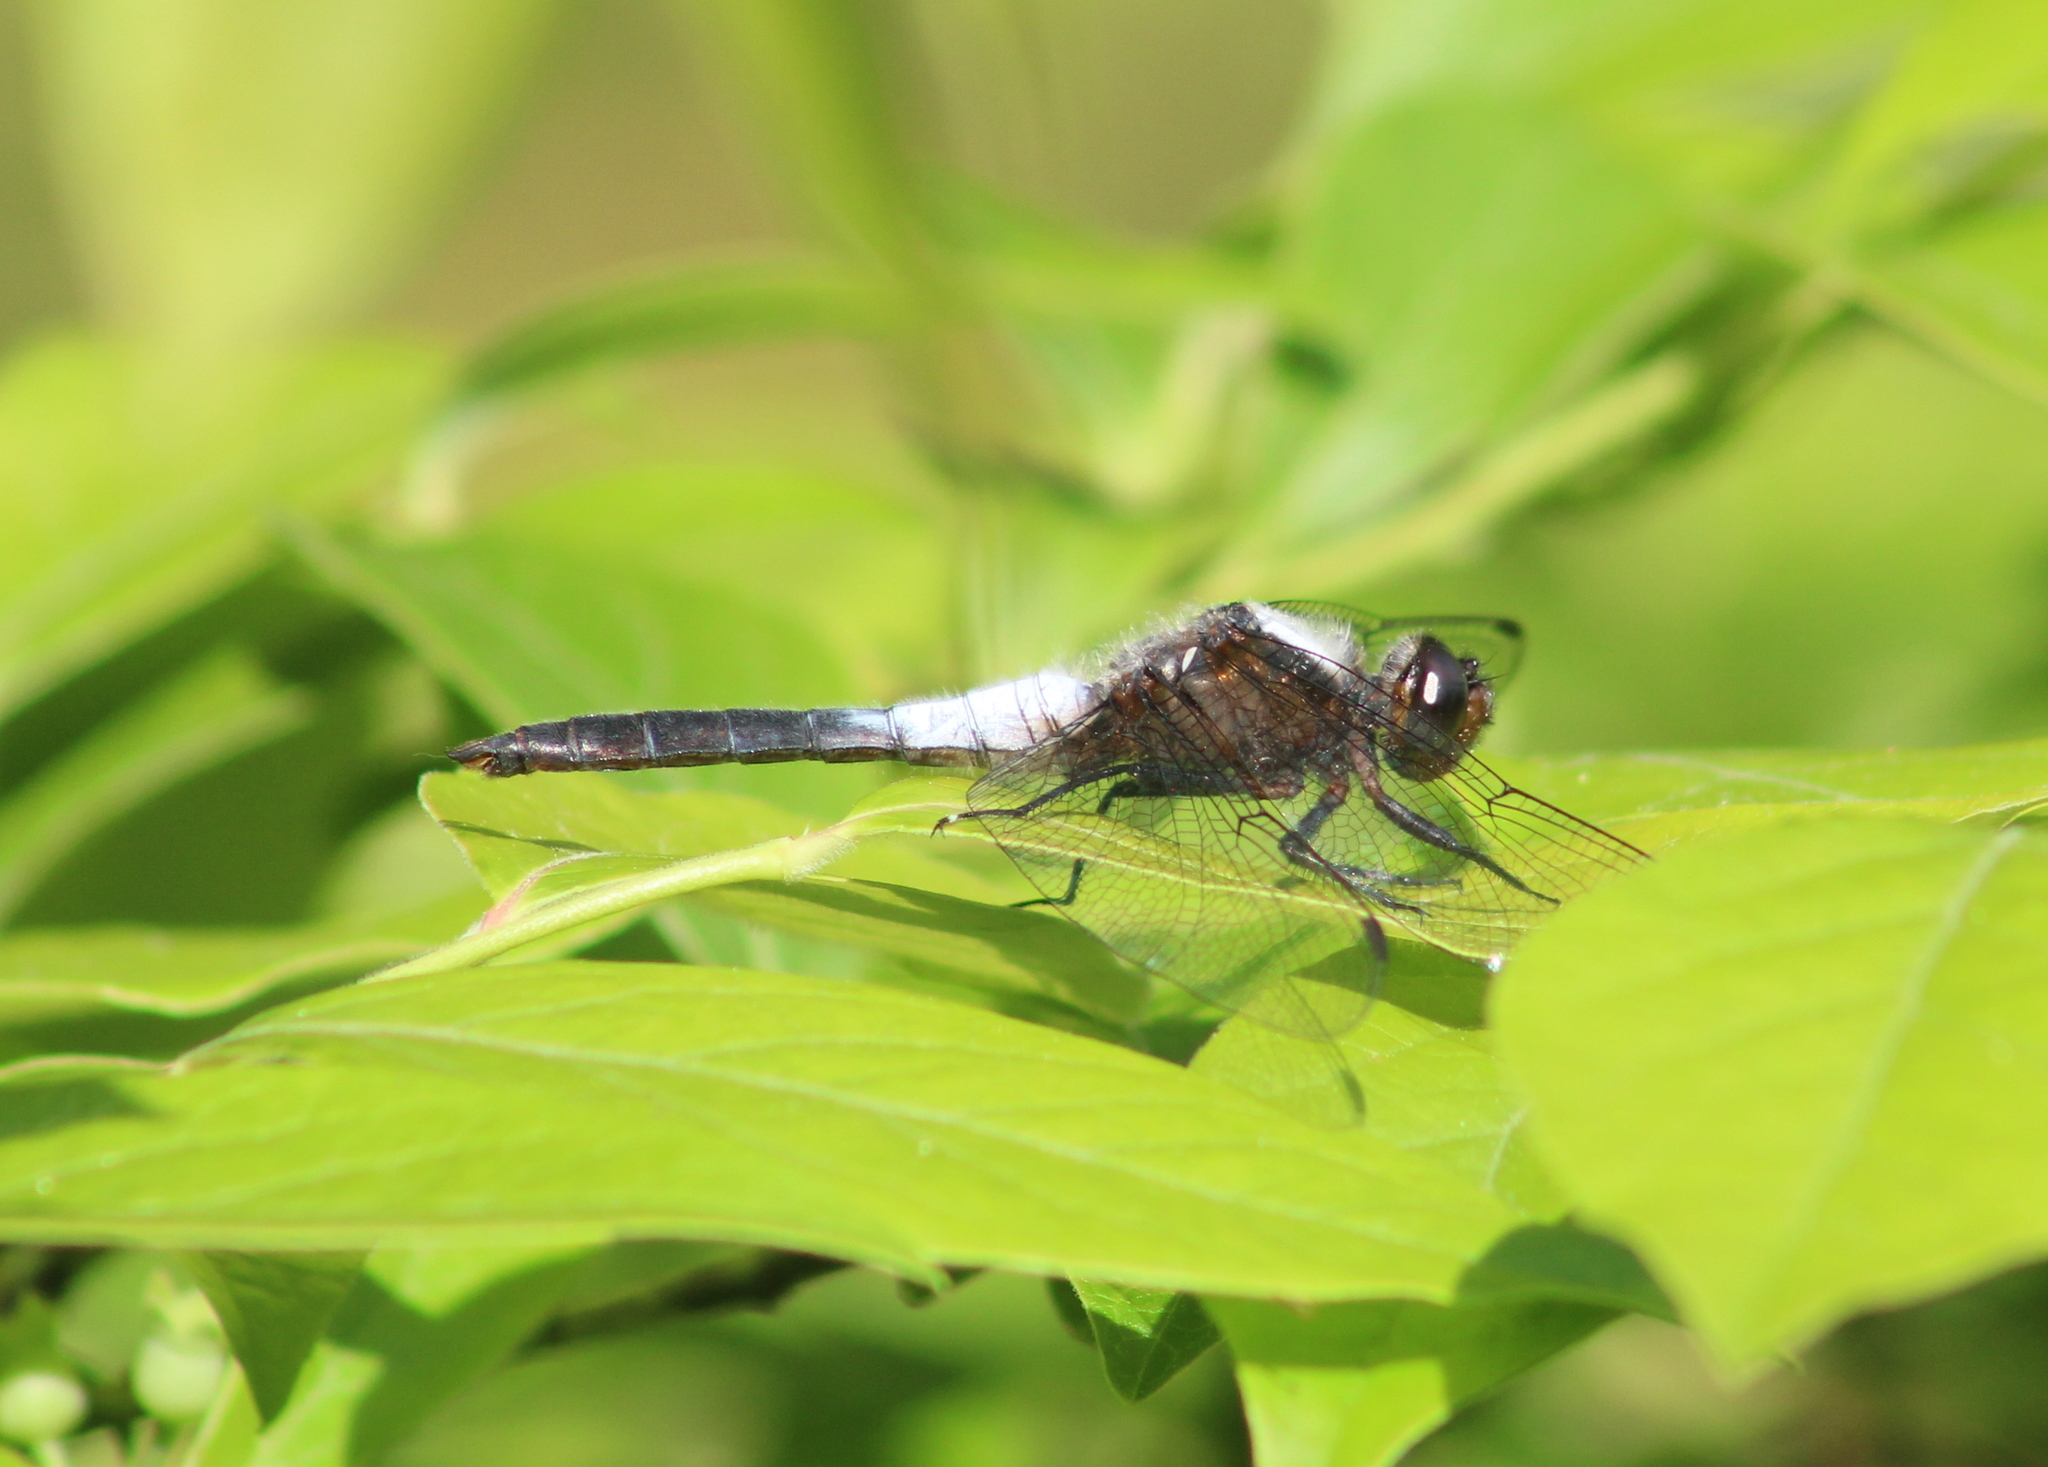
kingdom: Animalia
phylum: Arthropoda
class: Insecta
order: Odonata
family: Libellulidae
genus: Ladona
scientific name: Ladona julia
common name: Chalk-fronted corporal
